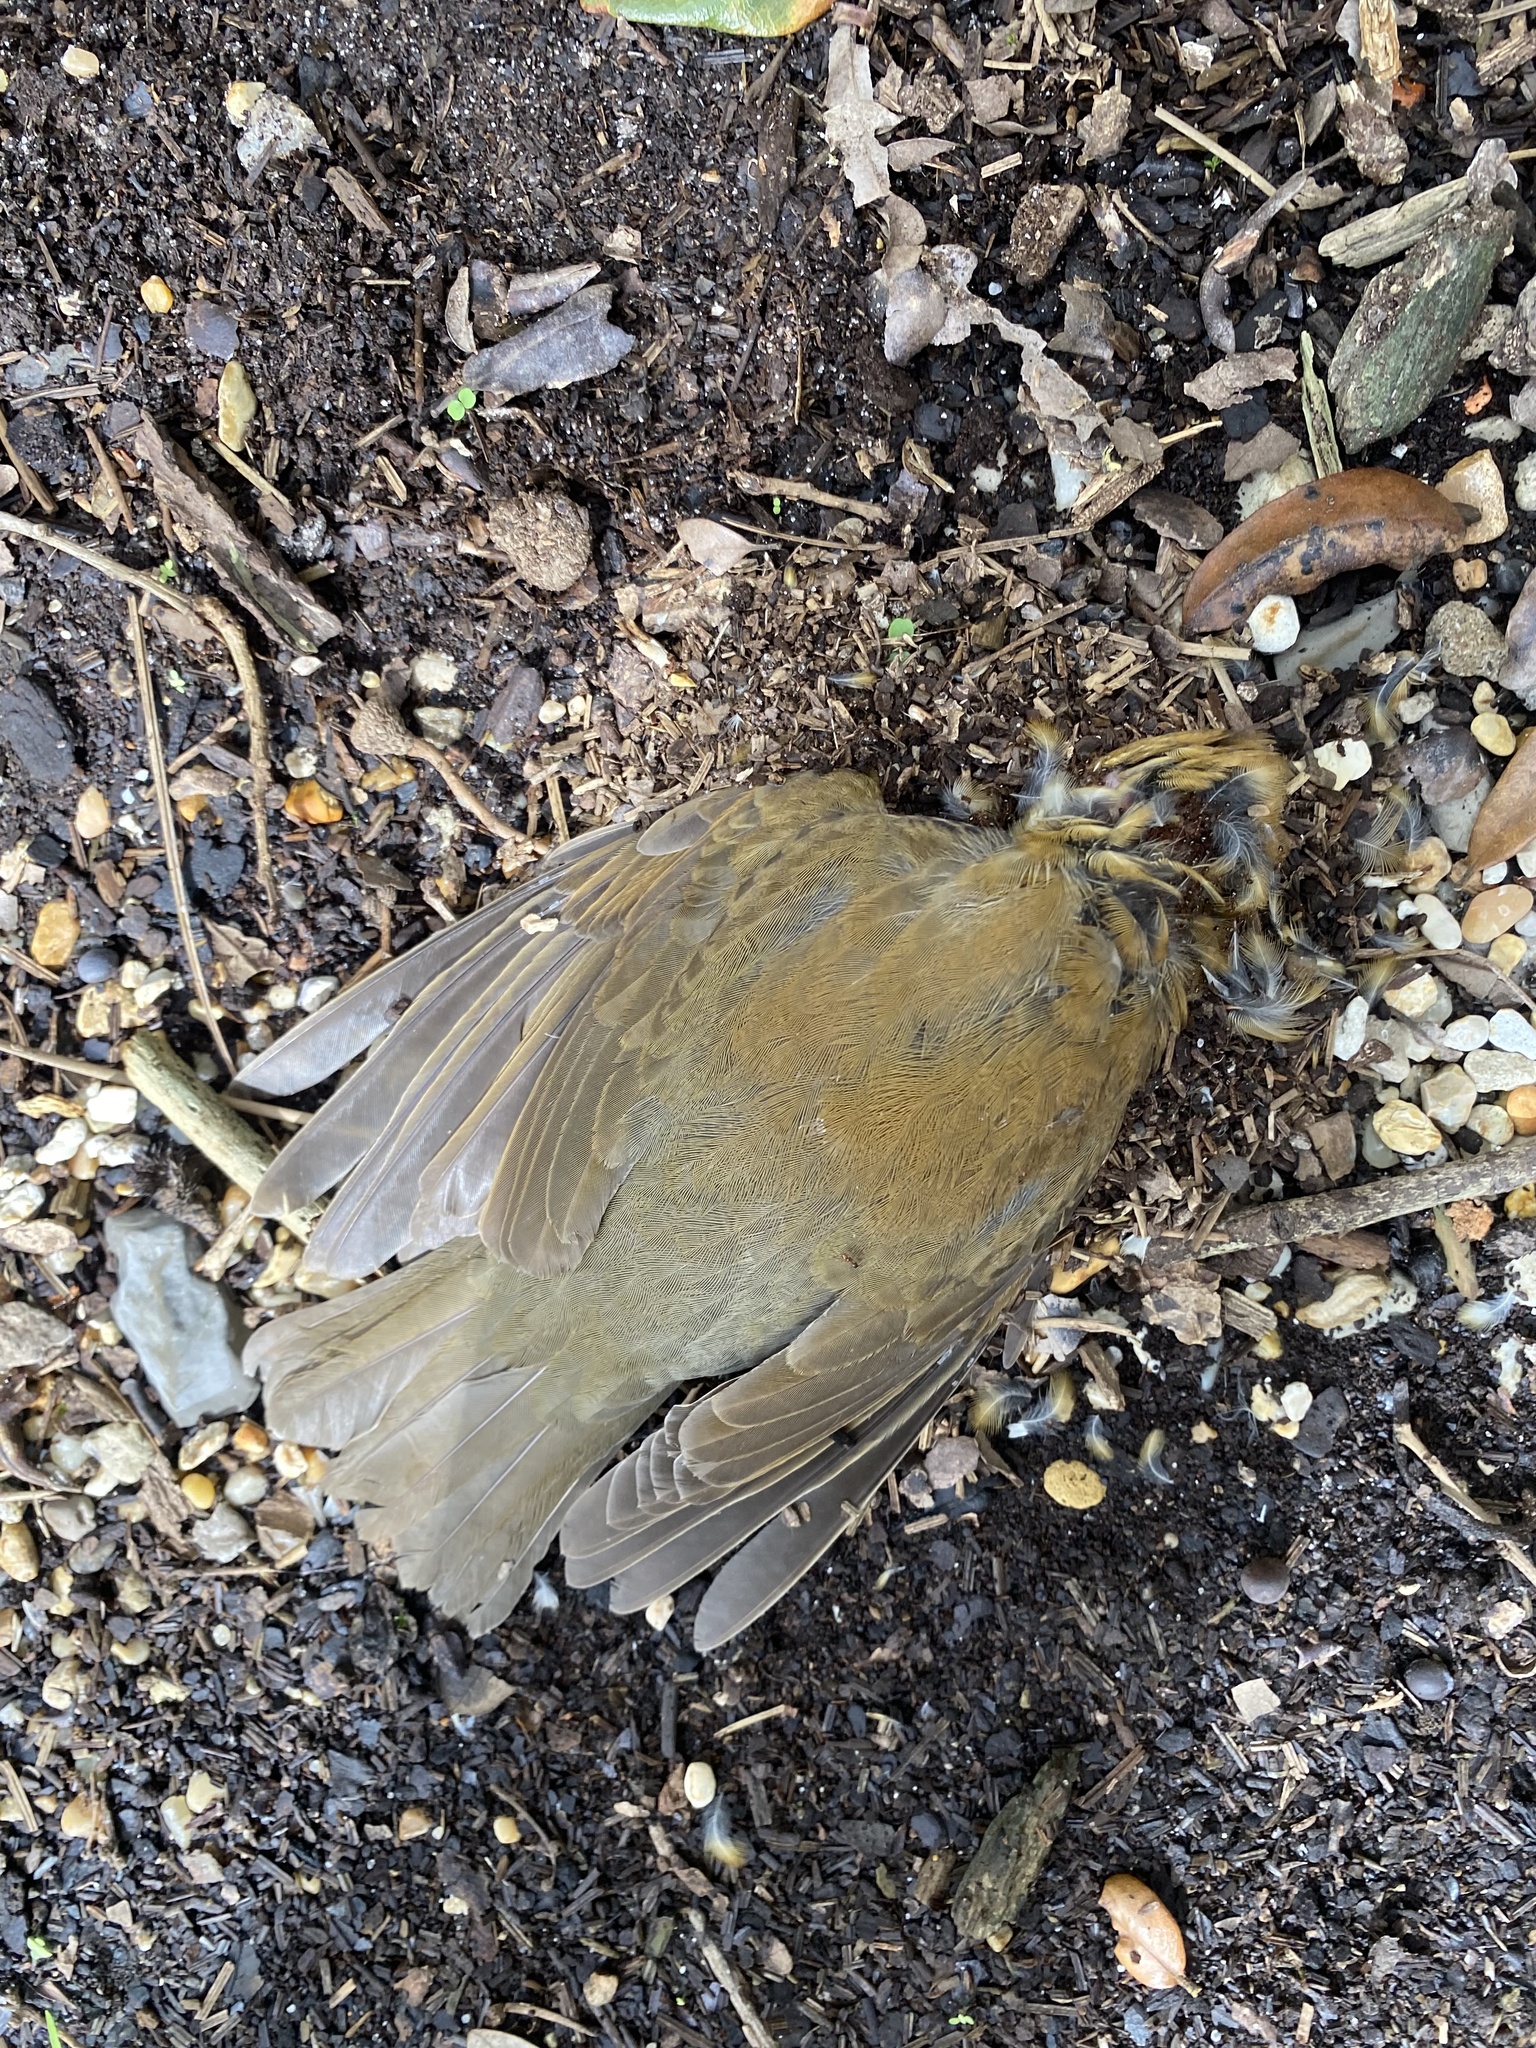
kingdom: Animalia
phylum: Chordata
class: Aves
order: Passeriformes
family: Turdidae
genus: Hylocichla
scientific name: Hylocichla mustelina
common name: Wood thrush
